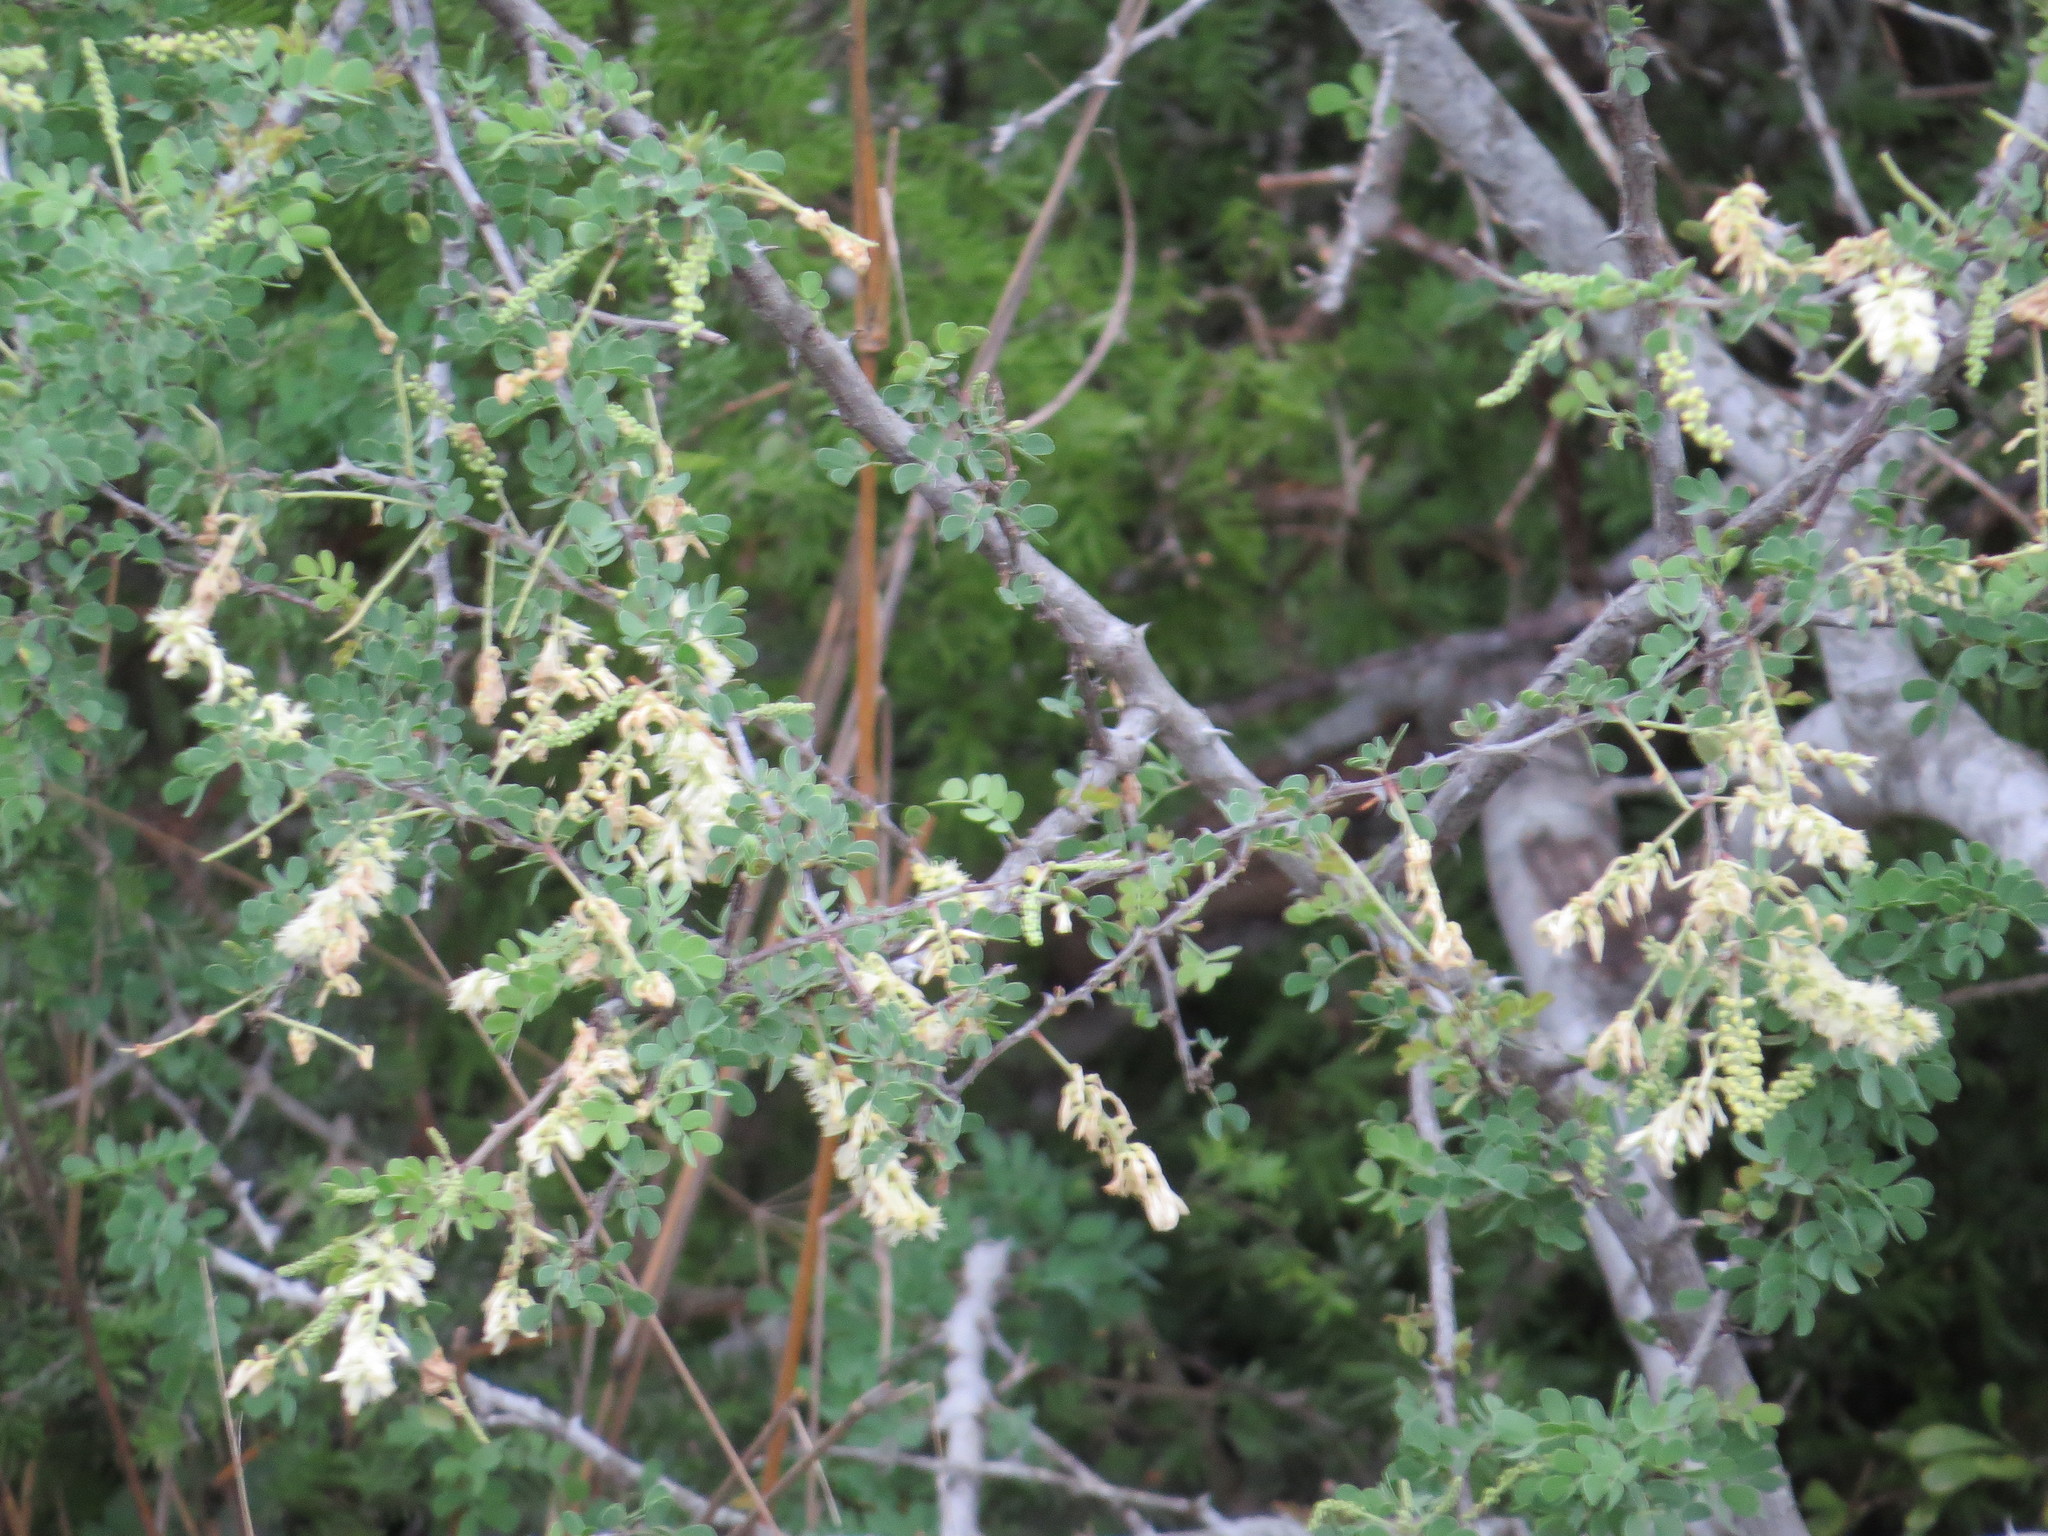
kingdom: Plantae
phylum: Tracheophyta
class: Magnoliopsida
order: Fabales
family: Fabaceae
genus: Senegalia
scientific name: Senegalia wrightii
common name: Texas cat's-claw
